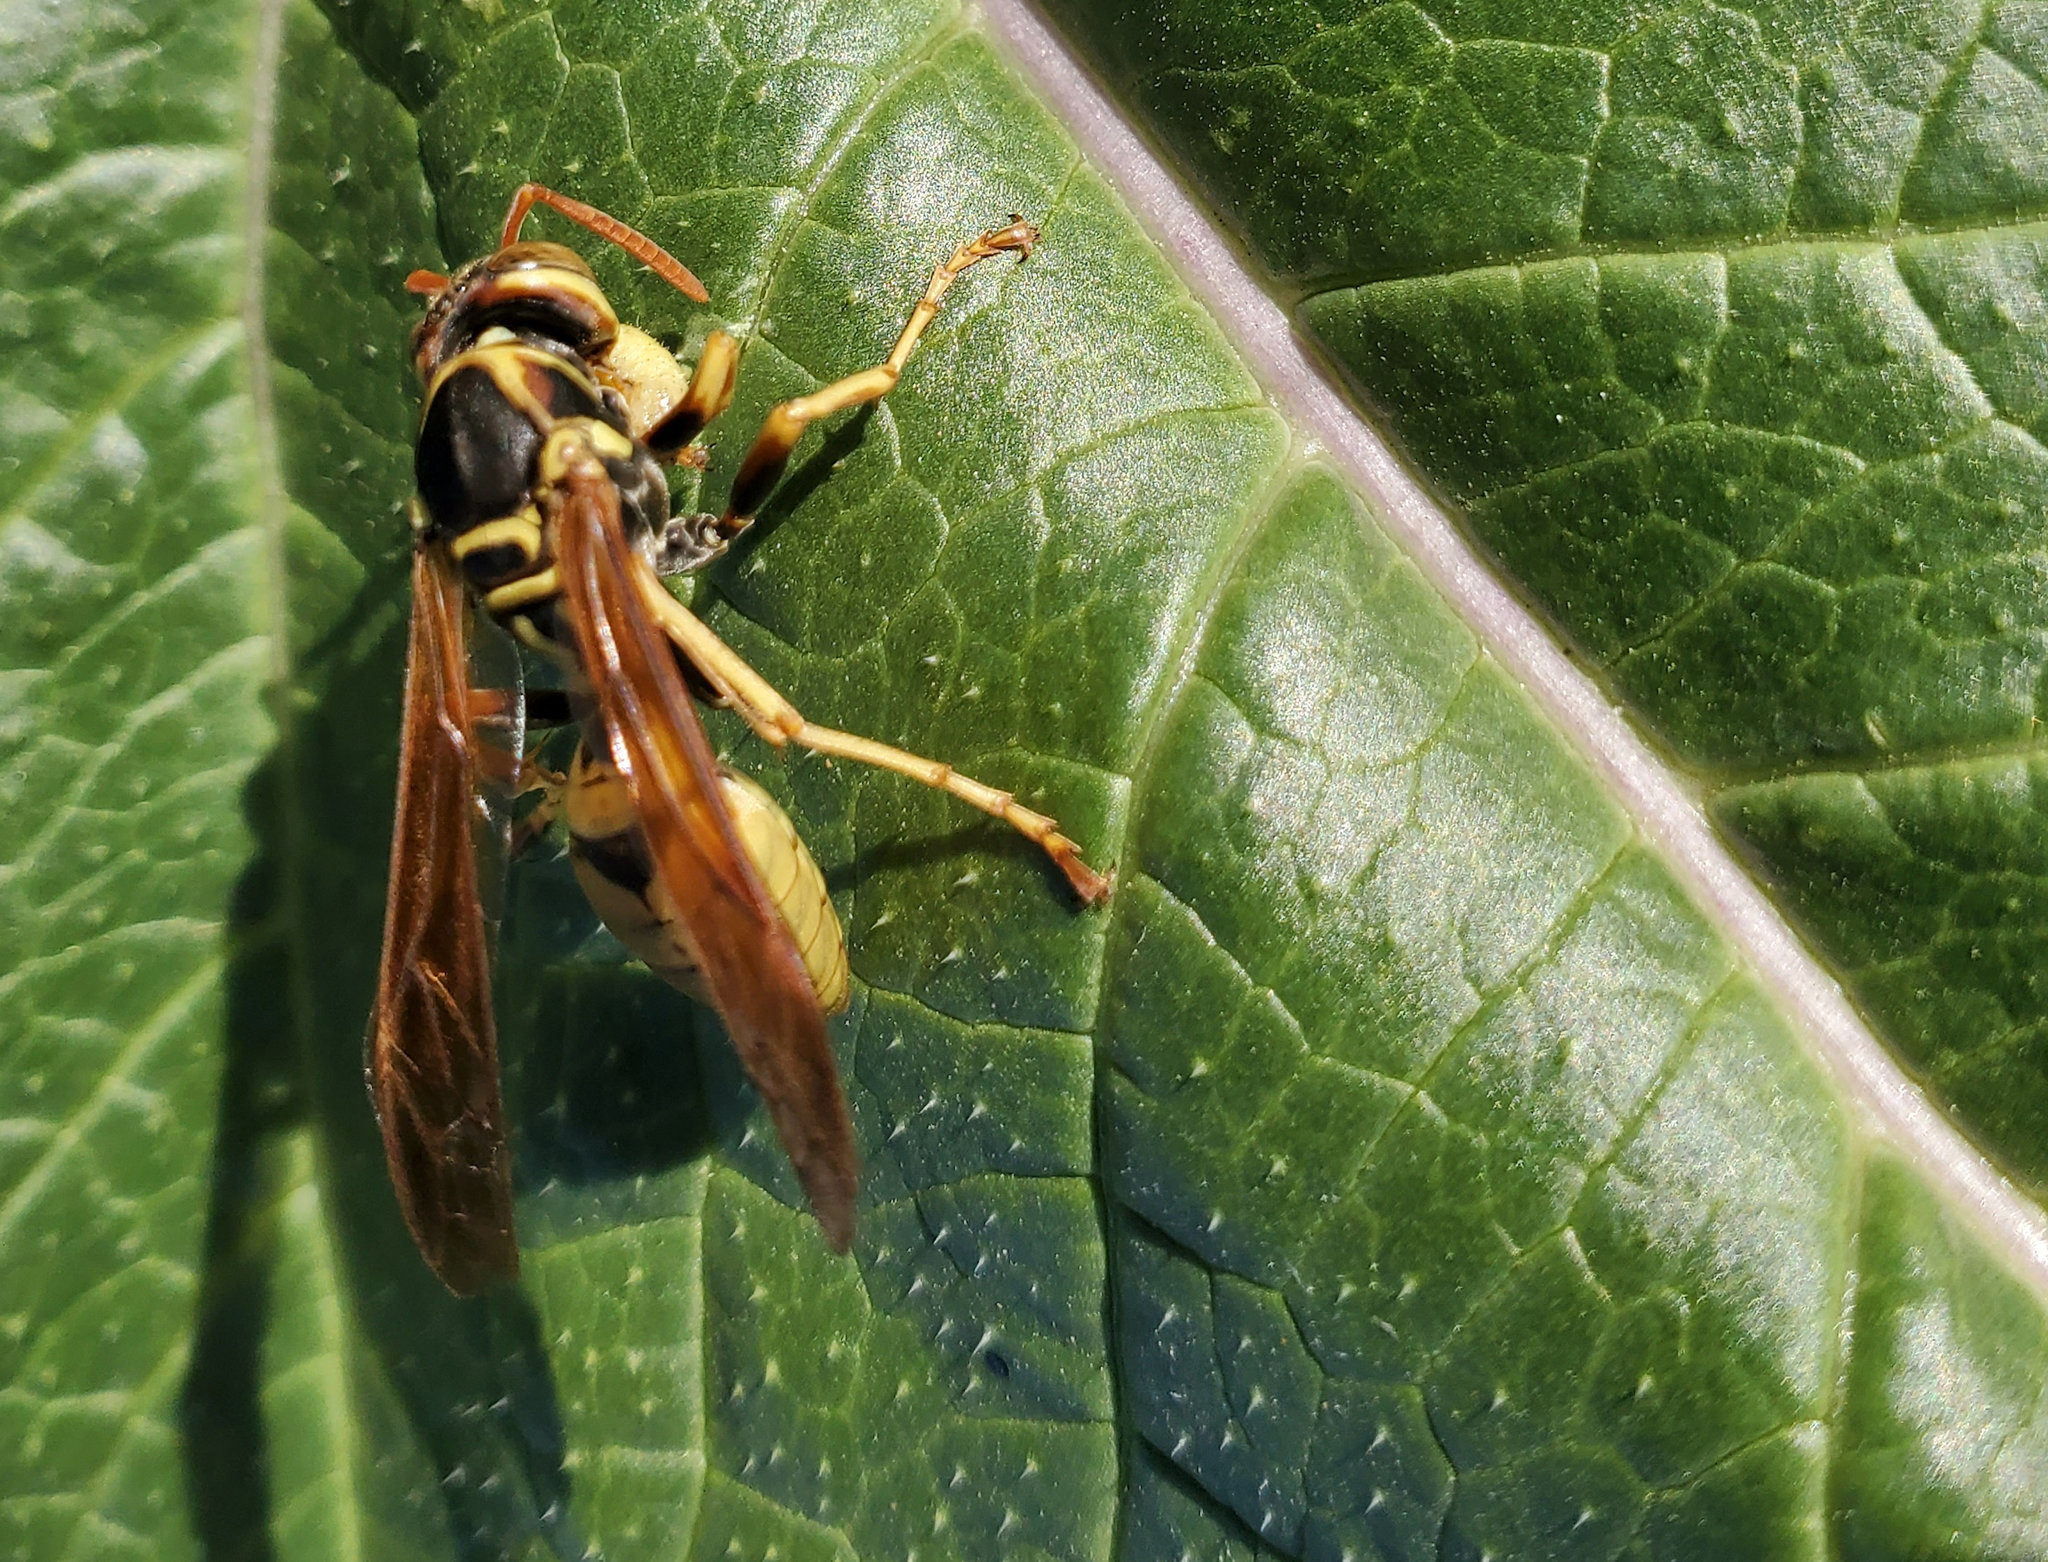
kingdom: Animalia
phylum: Arthropoda
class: Insecta
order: Hymenoptera
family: Eumenidae
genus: Polistes
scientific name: Polistes aurifer
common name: Paper wasp
